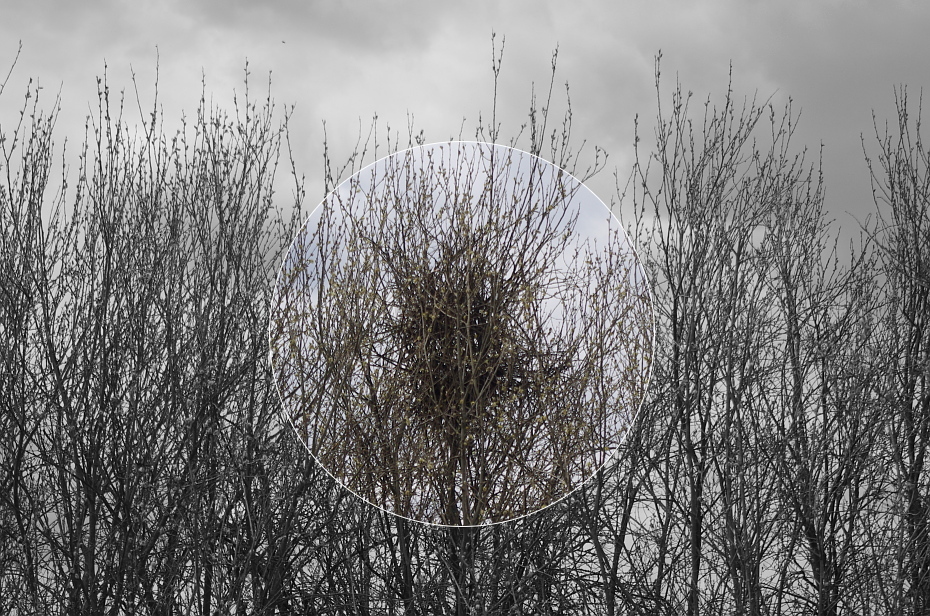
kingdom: Animalia
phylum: Chordata
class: Aves
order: Passeriformes
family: Corvidae
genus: Pica
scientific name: Pica pica
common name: Eurasian magpie
